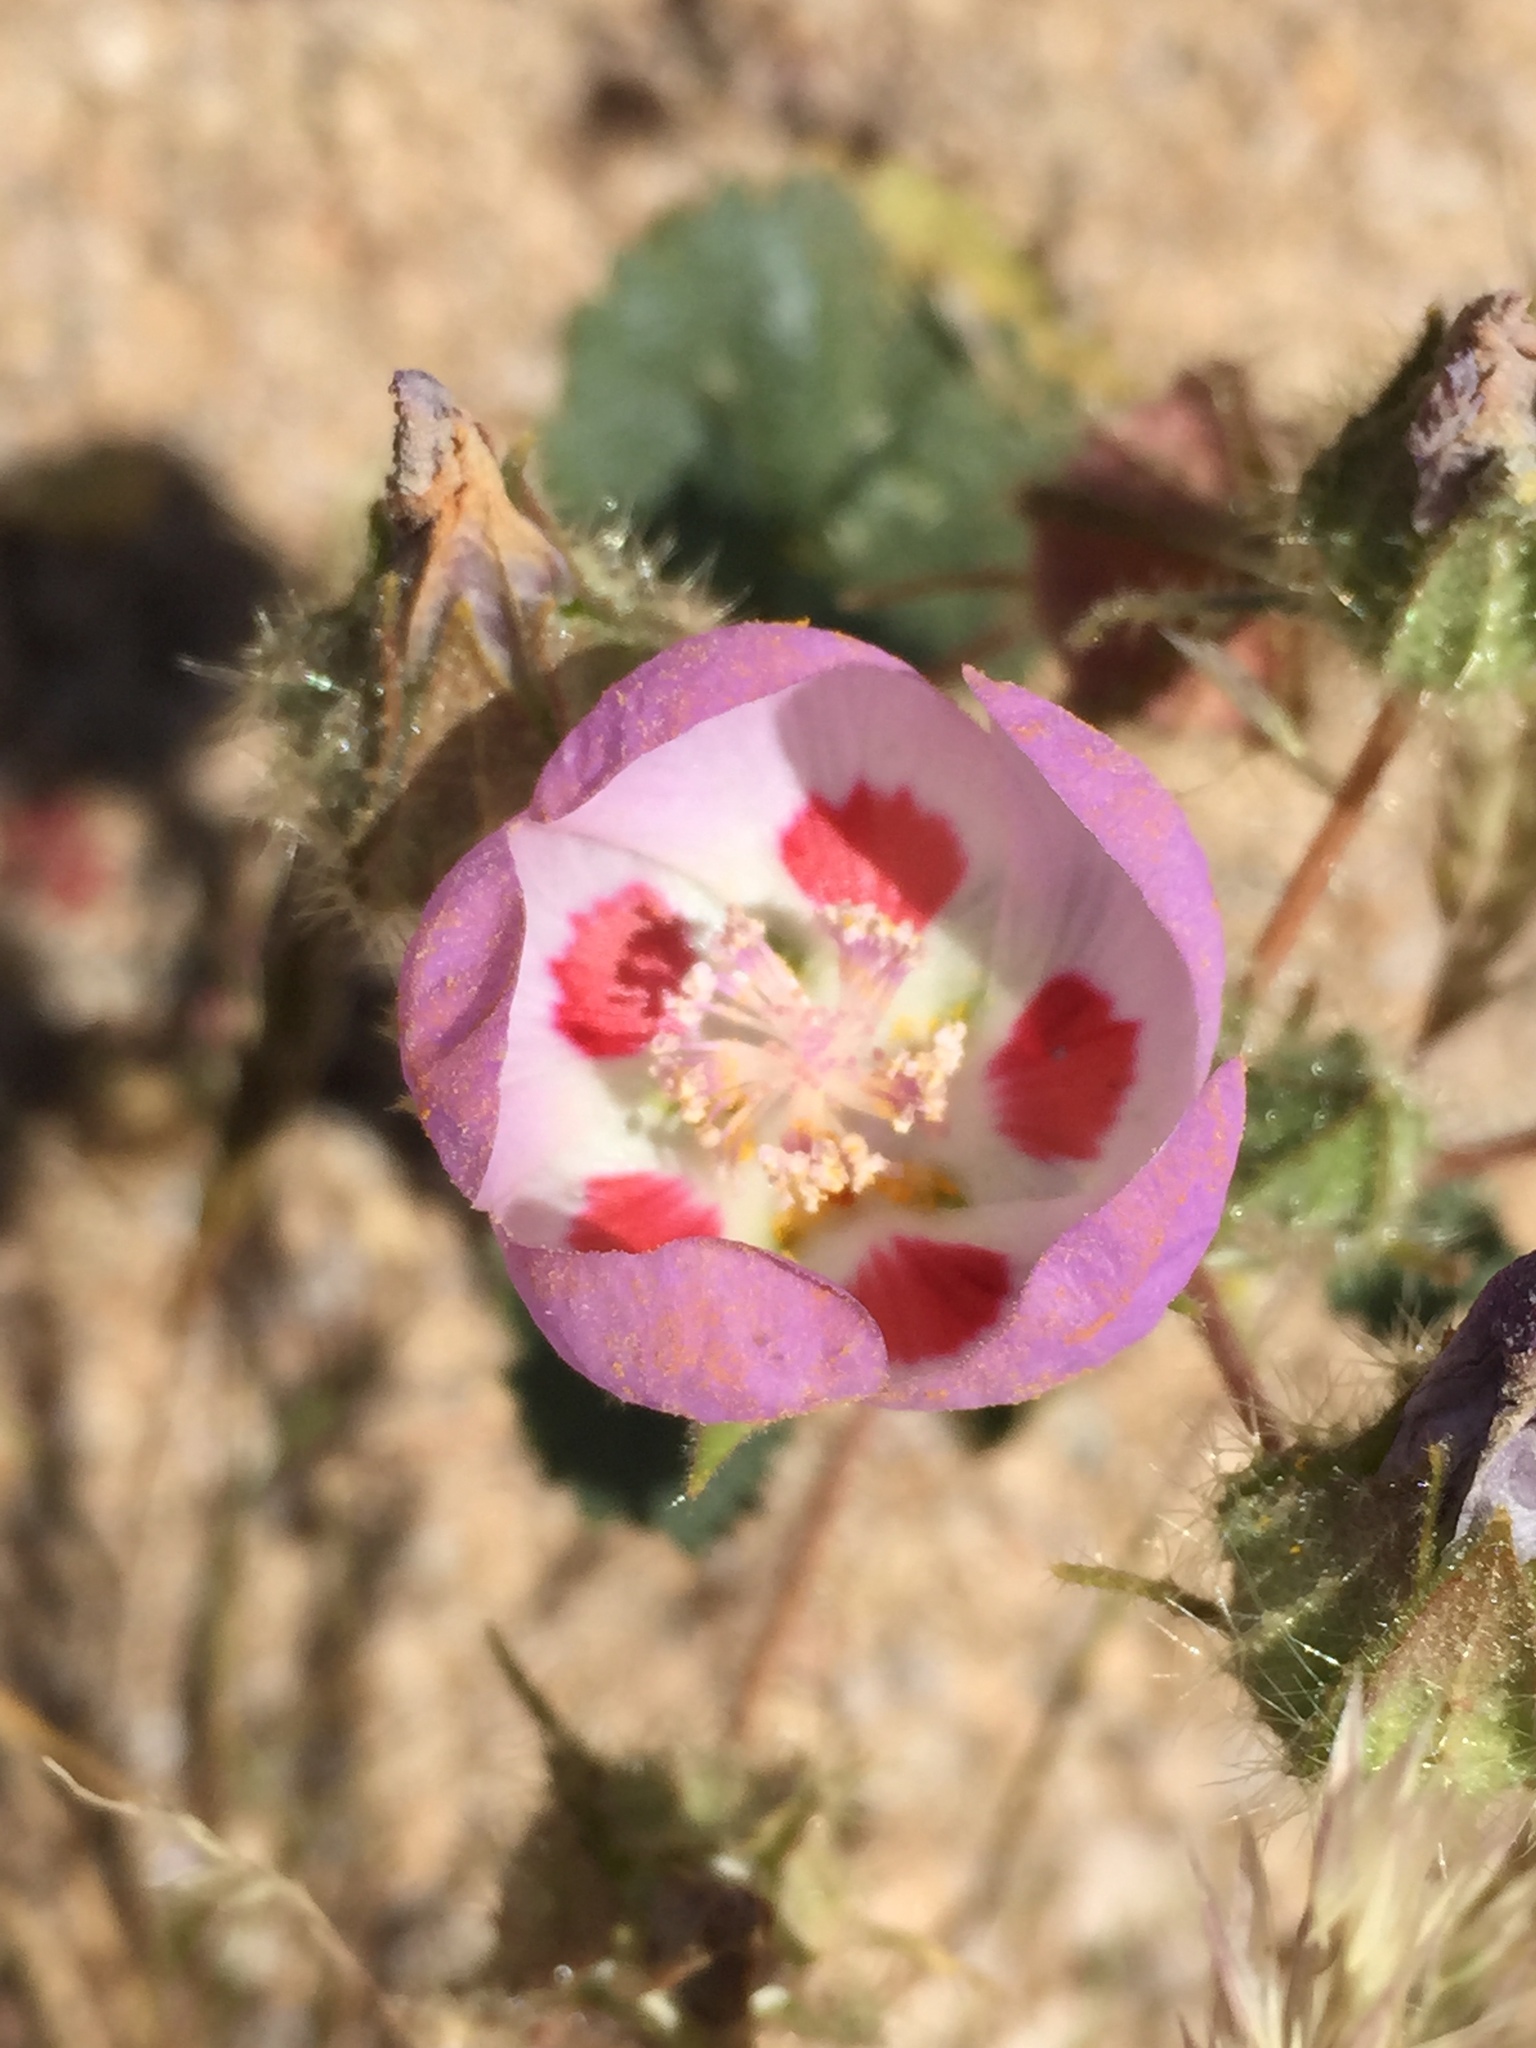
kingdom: Plantae
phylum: Tracheophyta
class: Magnoliopsida
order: Malvales
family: Malvaceae
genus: Eremalche
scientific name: Eremalche rotundifolia
